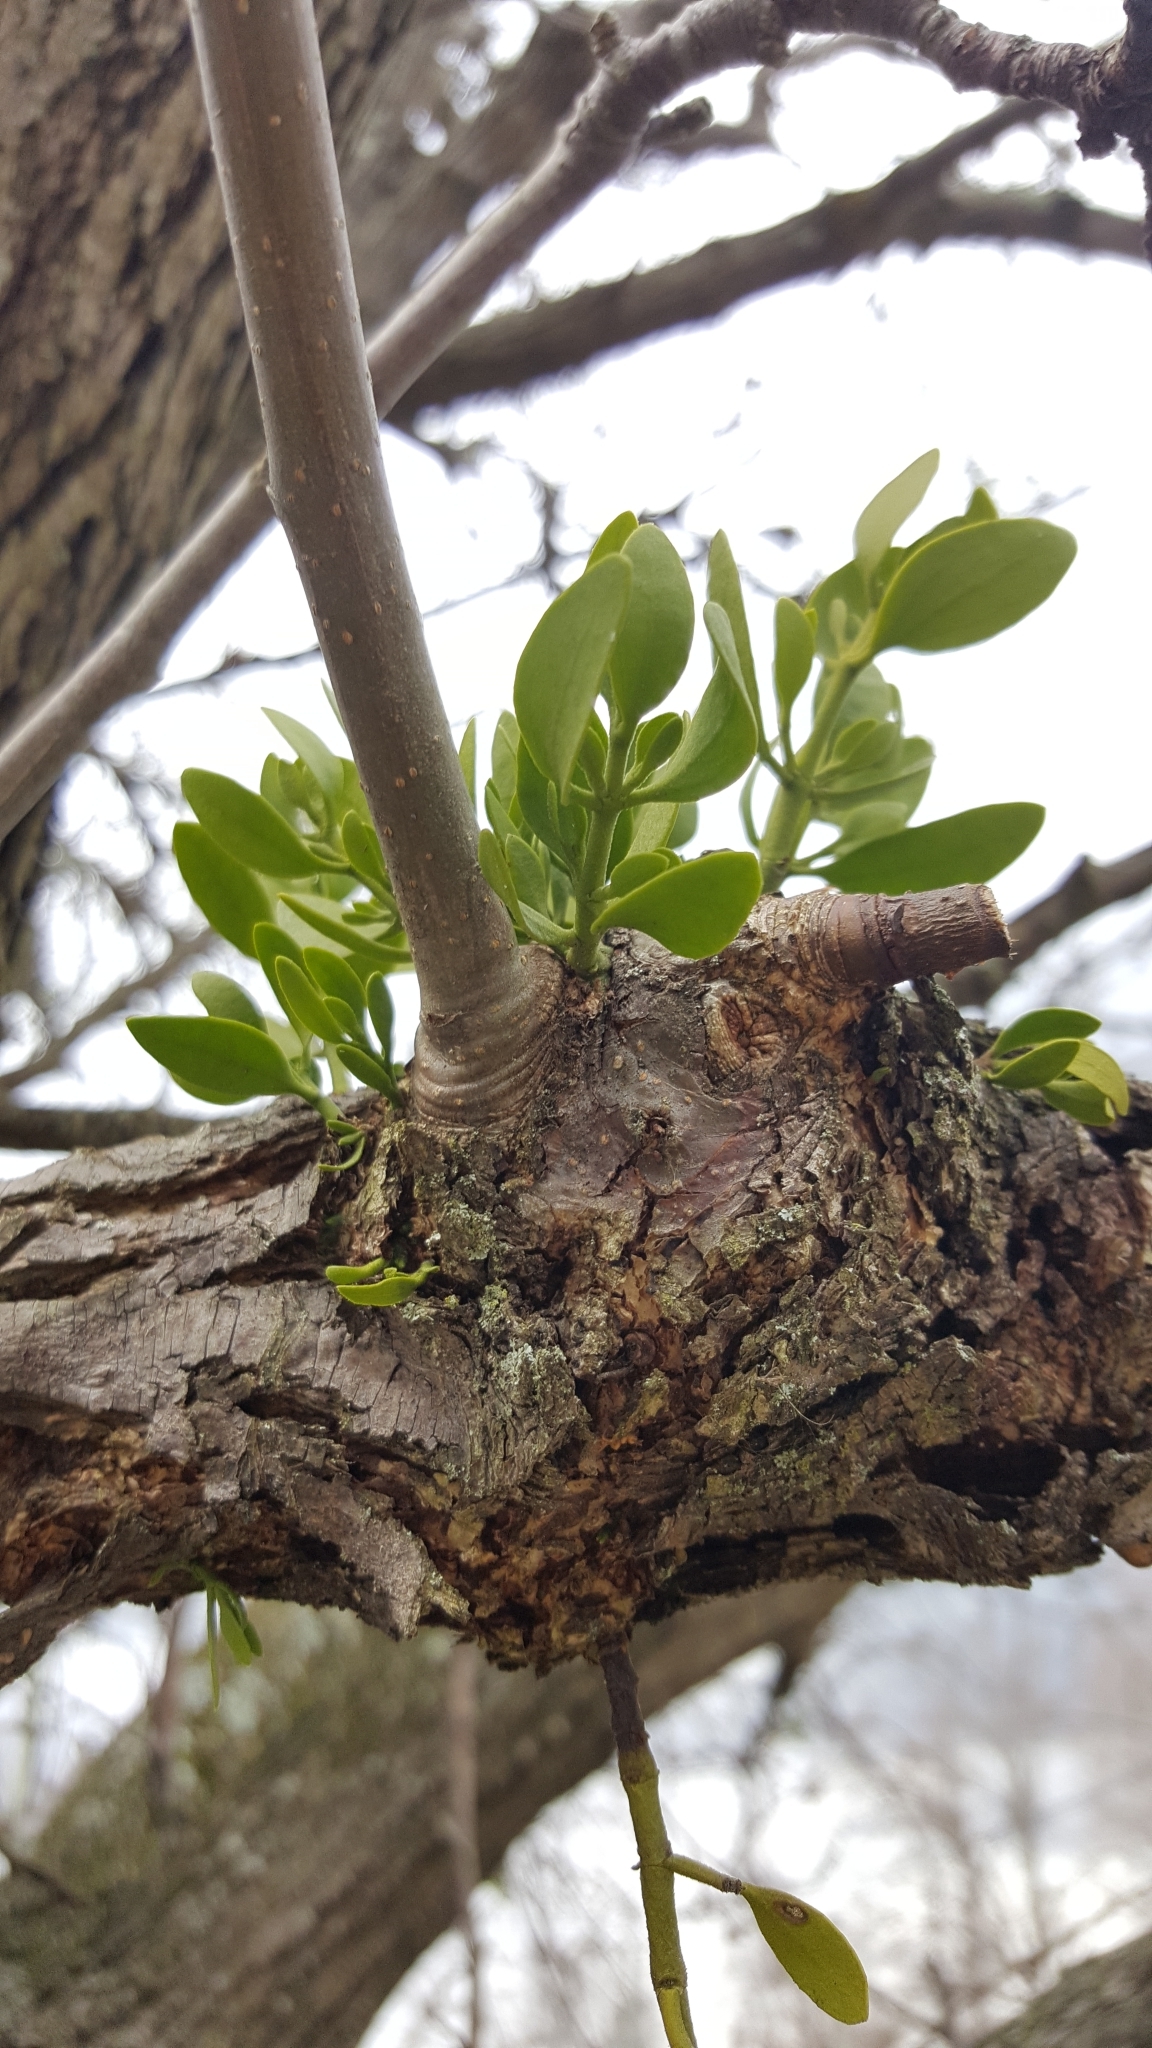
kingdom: Plantae
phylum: Tracheophyta
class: Magnoliopsida
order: Santalales
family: Viscaceae
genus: Phoradendron
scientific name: Phoradendron leucarpum
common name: Pacific mistletoe
